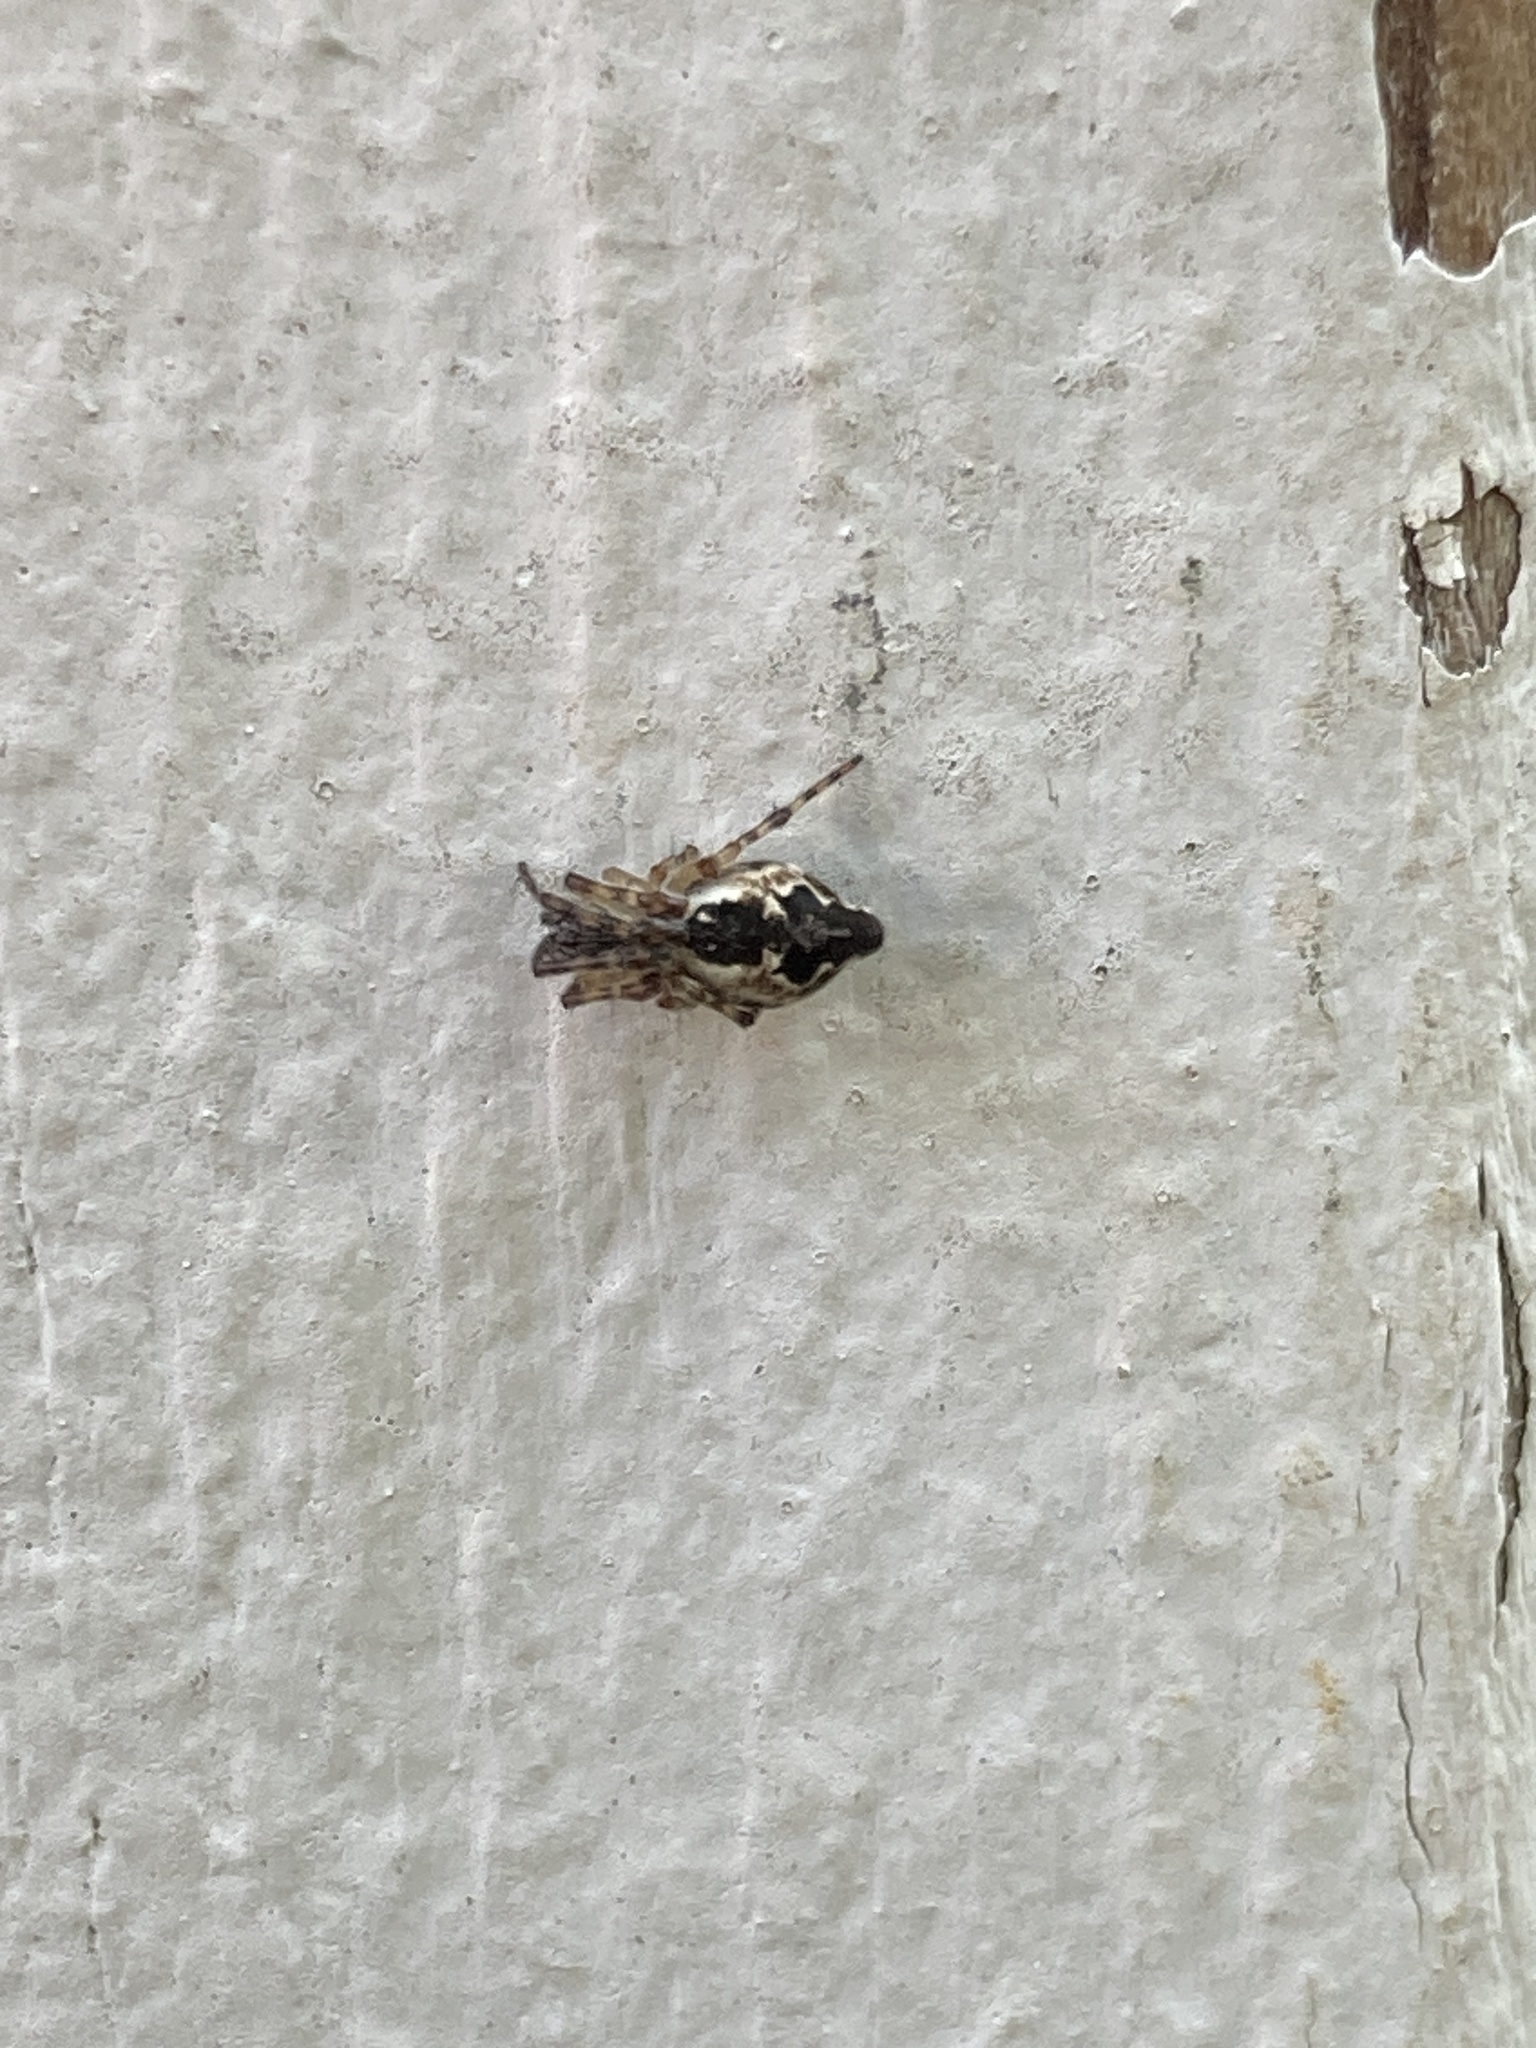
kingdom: Animalia
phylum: Arthropoda
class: Arachnida
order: Araneae
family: Araneidae
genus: Cyclosa
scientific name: Cyclosa conica
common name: Conical trashline orbweaver
